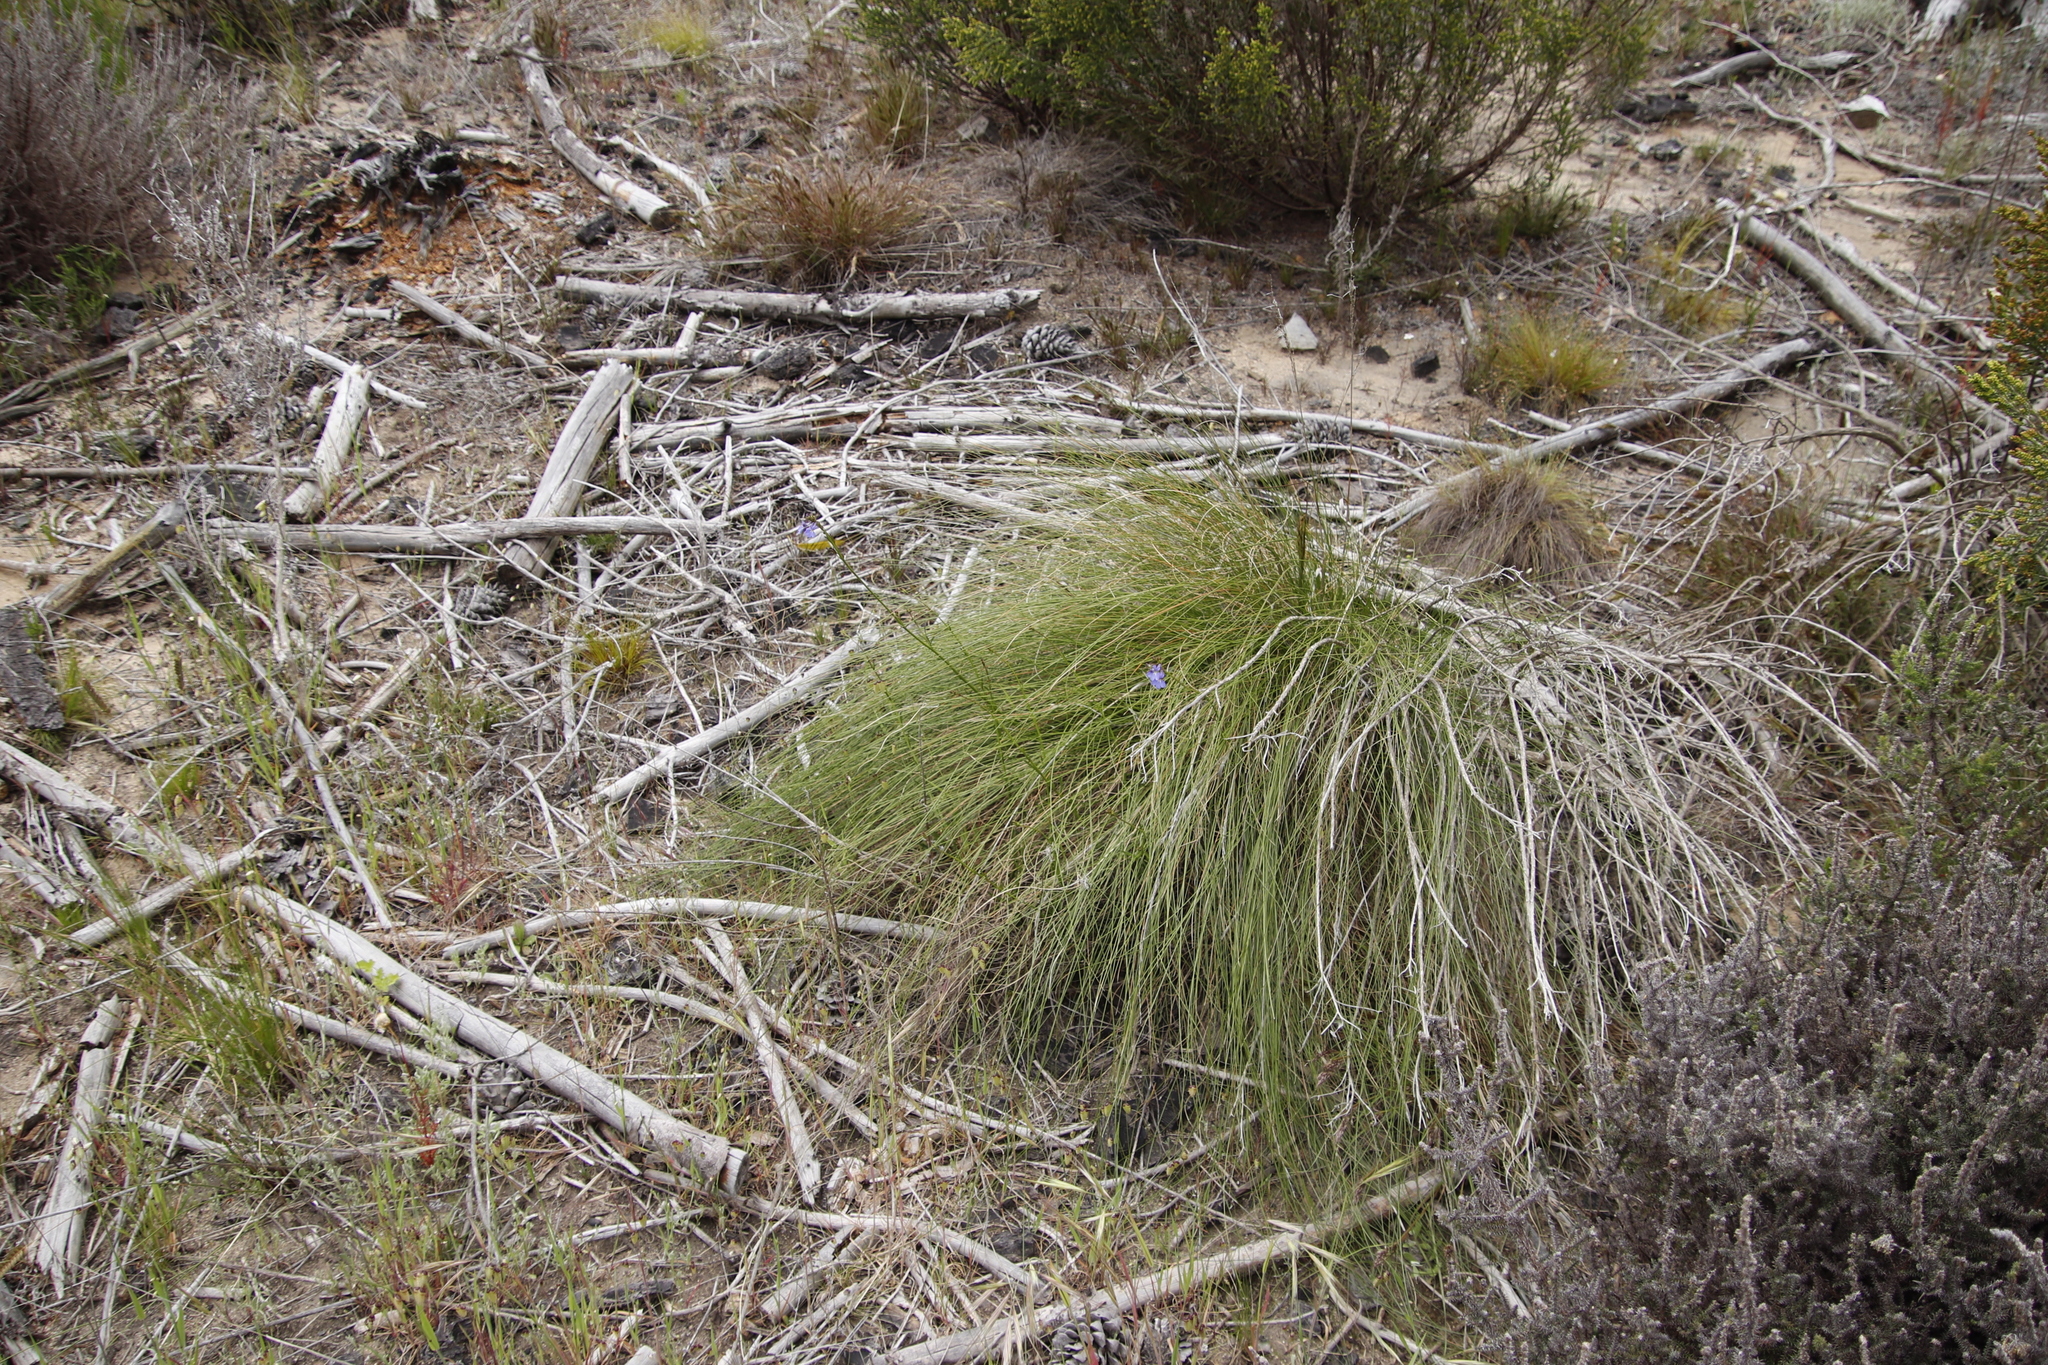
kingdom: Plantae
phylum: Tracheophyta
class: Magnoliopsida
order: Asterales
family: Campanulaceae
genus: Lobelia
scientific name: Lobelia comosa
